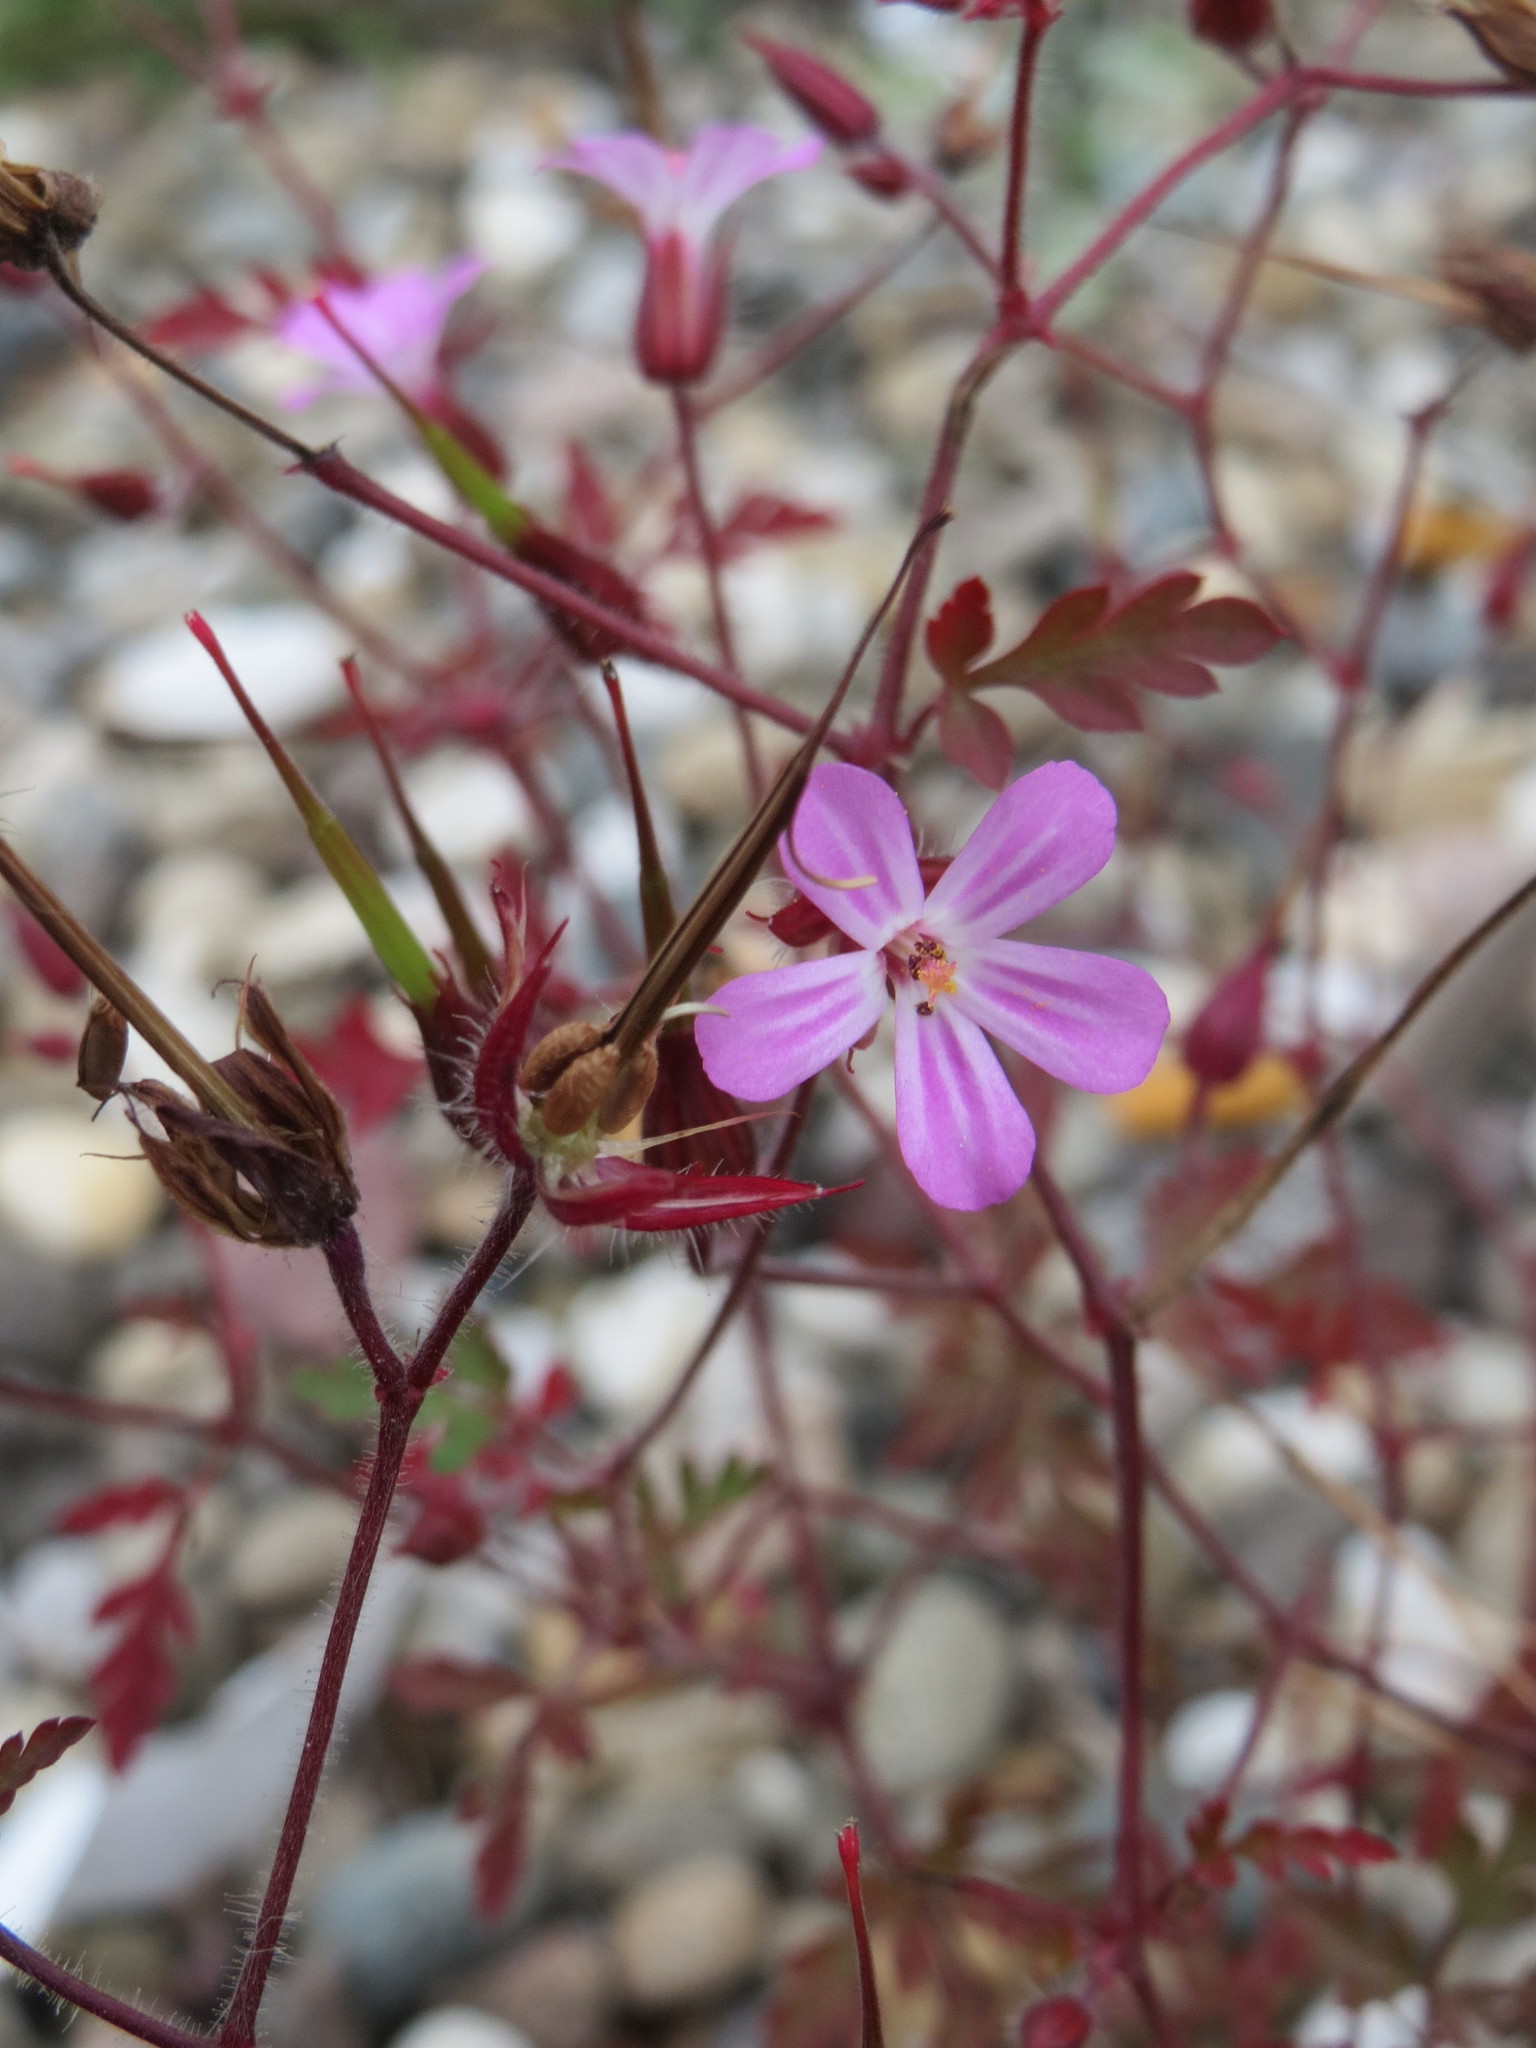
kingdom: Plantae
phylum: Tracheophyta
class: Magnoliopsida
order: Geraniales
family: Geraniaceae
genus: Geranium
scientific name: Geranium robertianum
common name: Herb-robert
